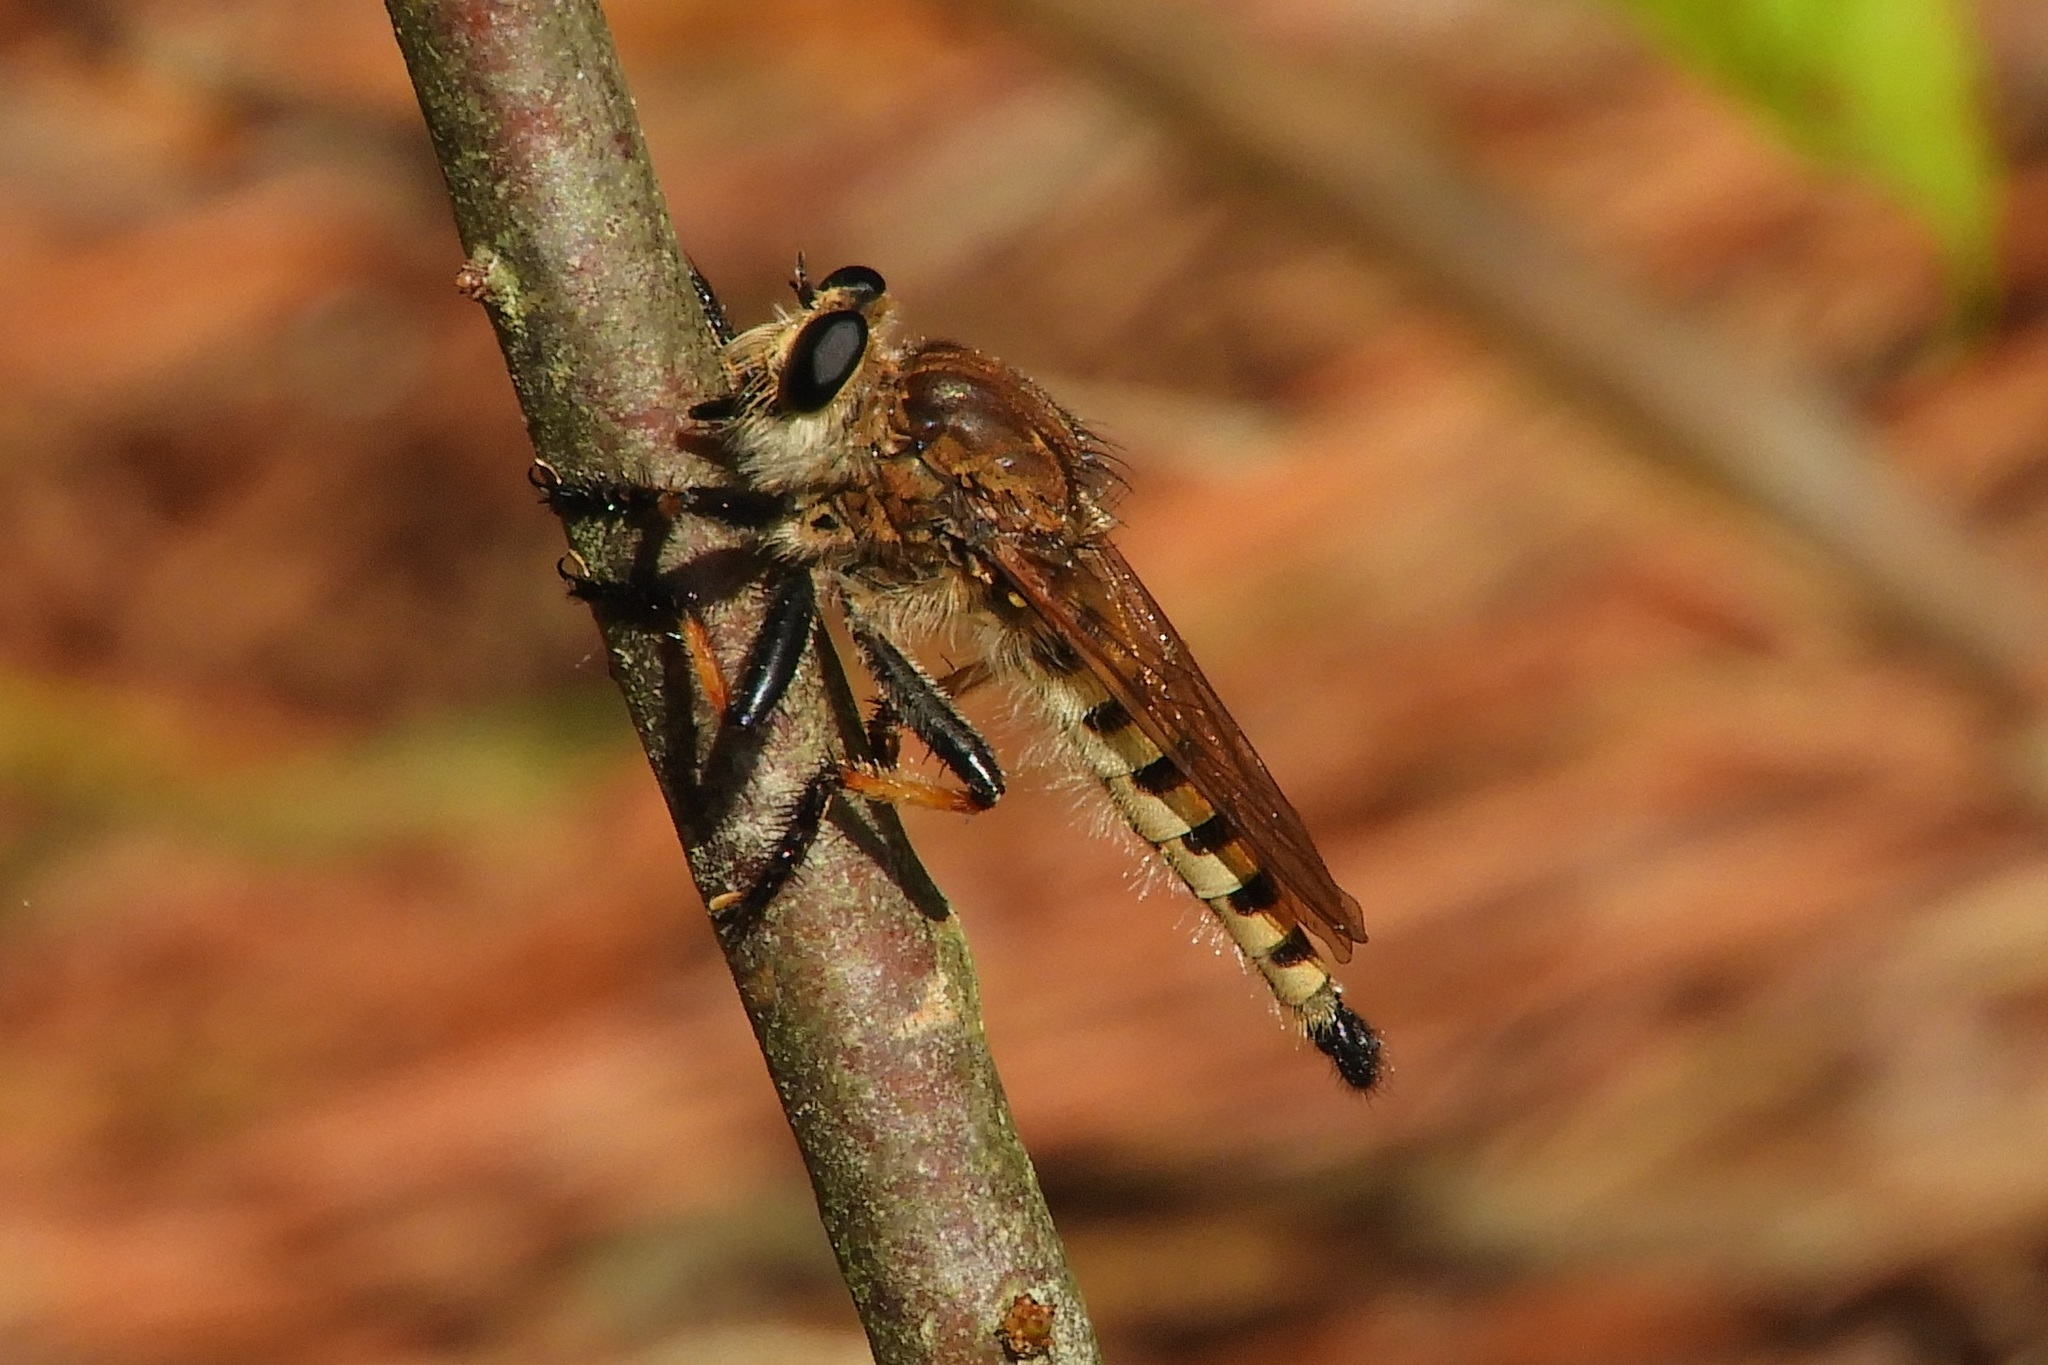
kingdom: Animalia
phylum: Arthropoda
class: Insecta
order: Diptera
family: Asilidae
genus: Promachus
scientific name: Promachus rufipes
